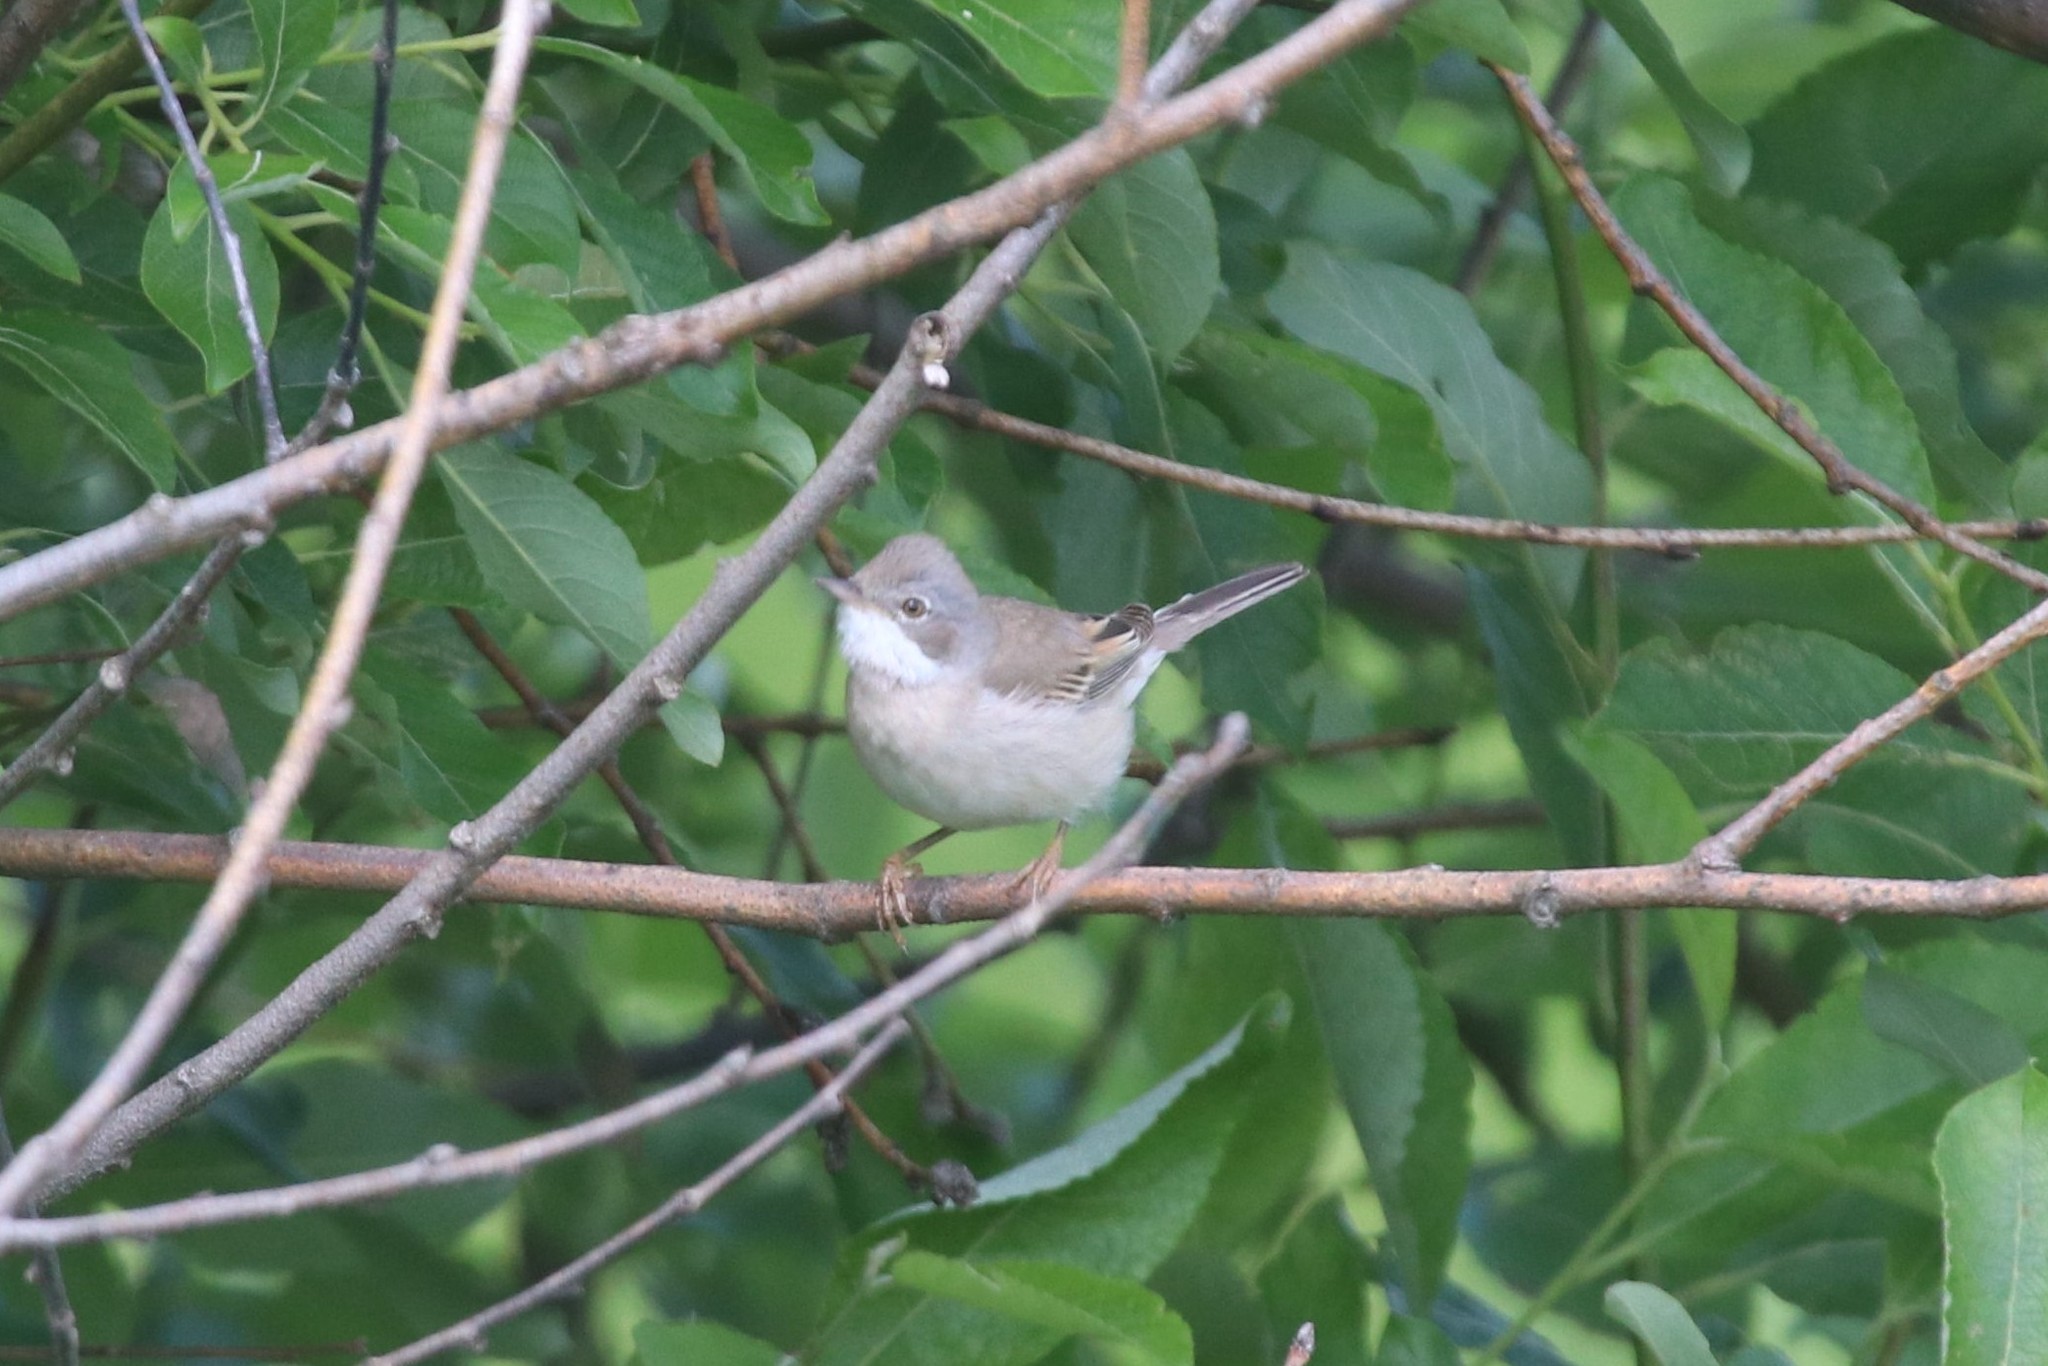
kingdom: Animalia
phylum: Chordata
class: Aves
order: Passeriformes
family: Sylviidae
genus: Sylvia
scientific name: Sylvia communis
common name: Common whitethroat
